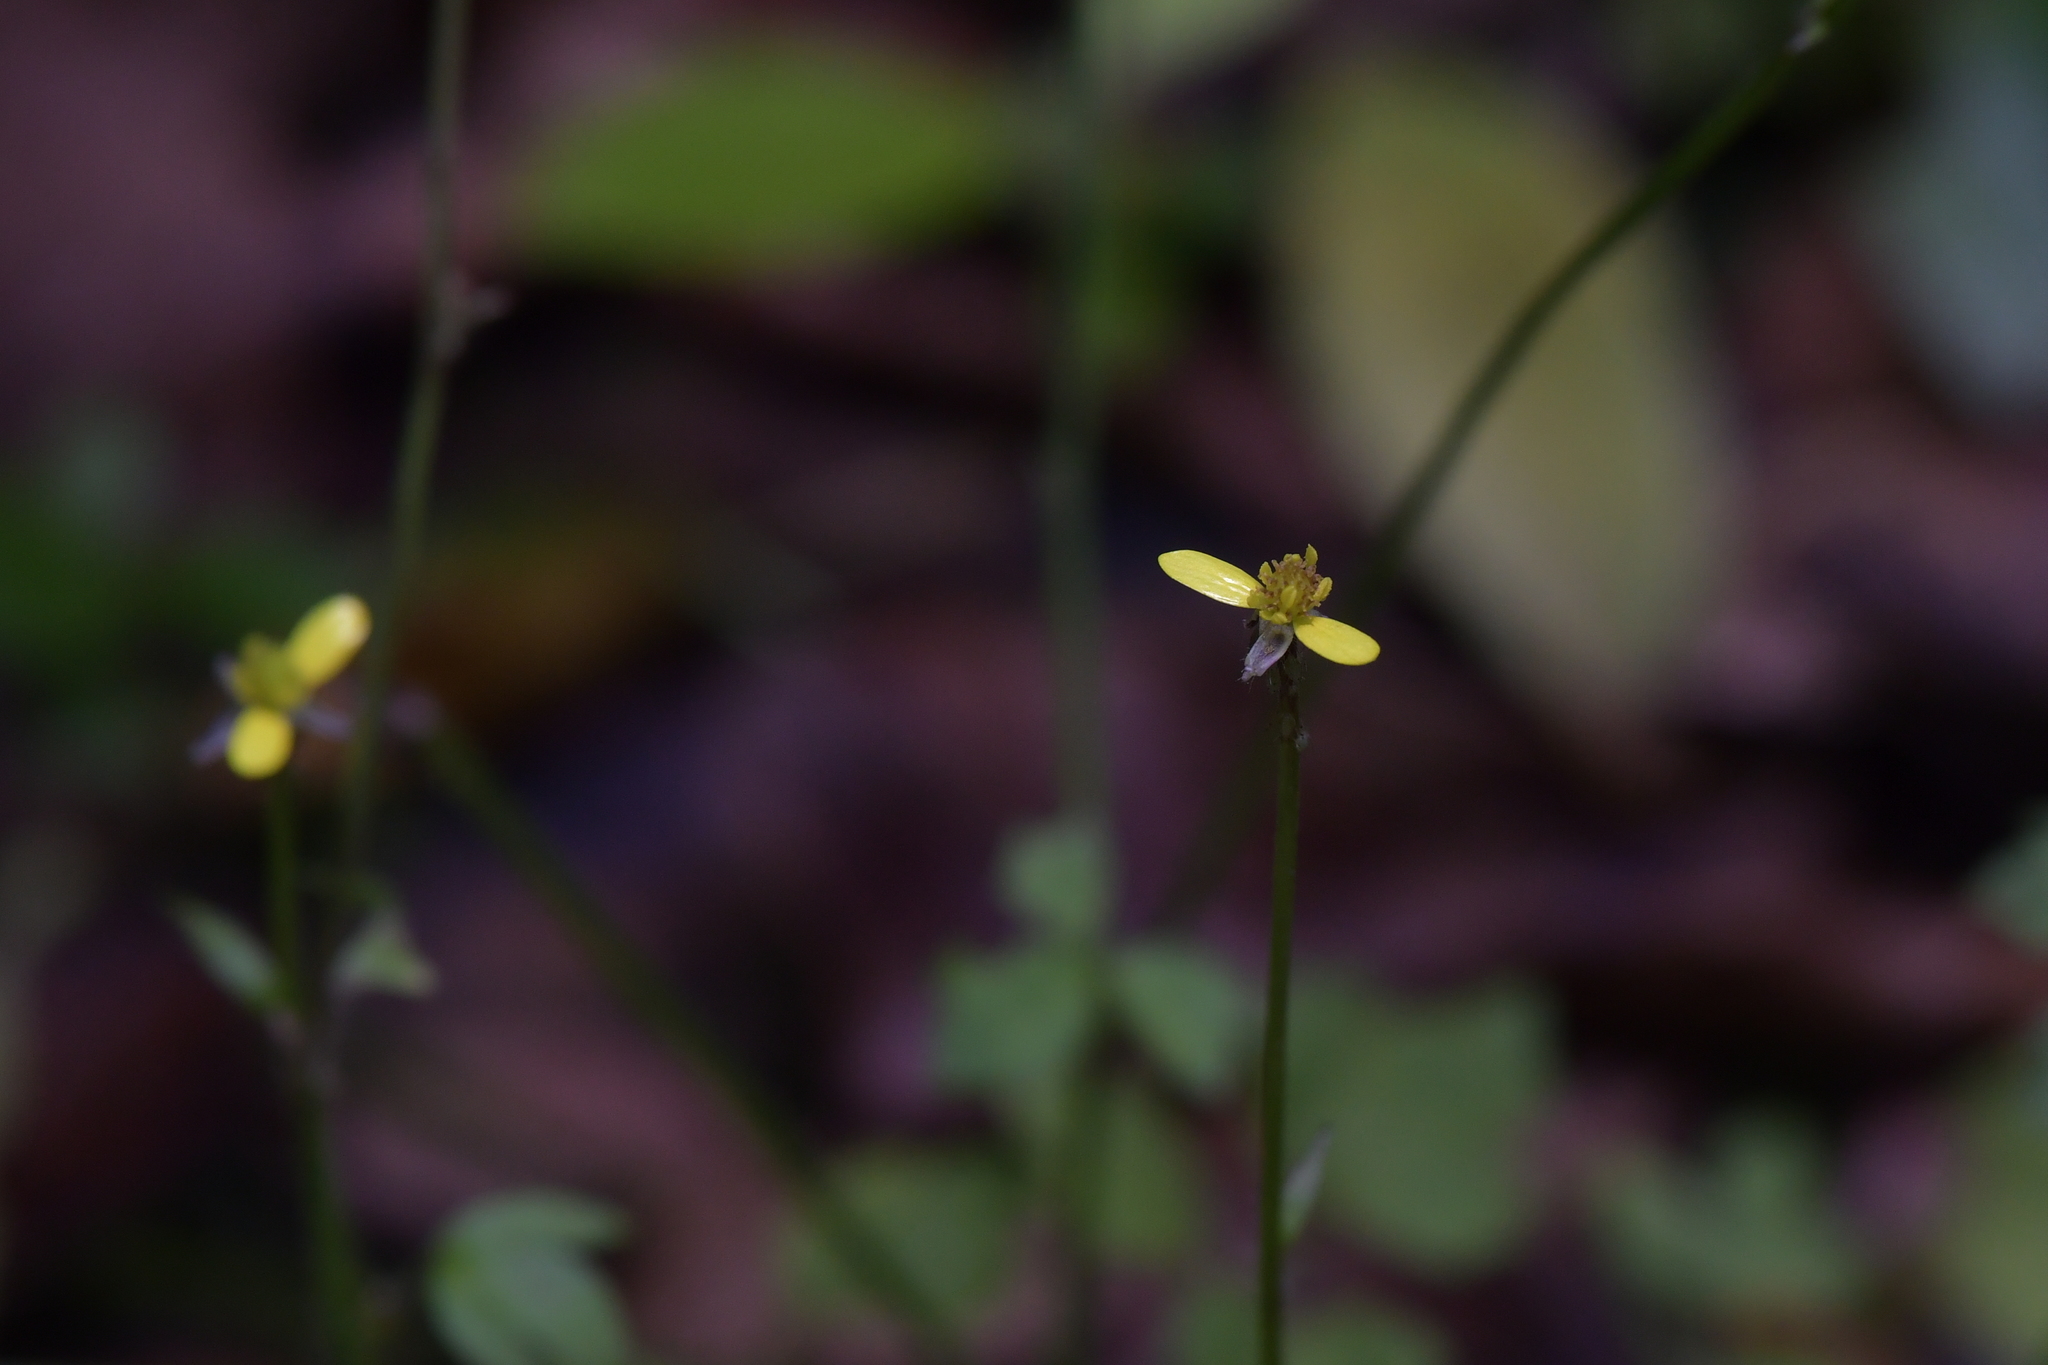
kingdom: Plantae
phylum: Tracheophyta
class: Magnoliopsida
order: Ranunculales
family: Ranunculaceae
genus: Ranunculus
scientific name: Ranunculus reflexus
